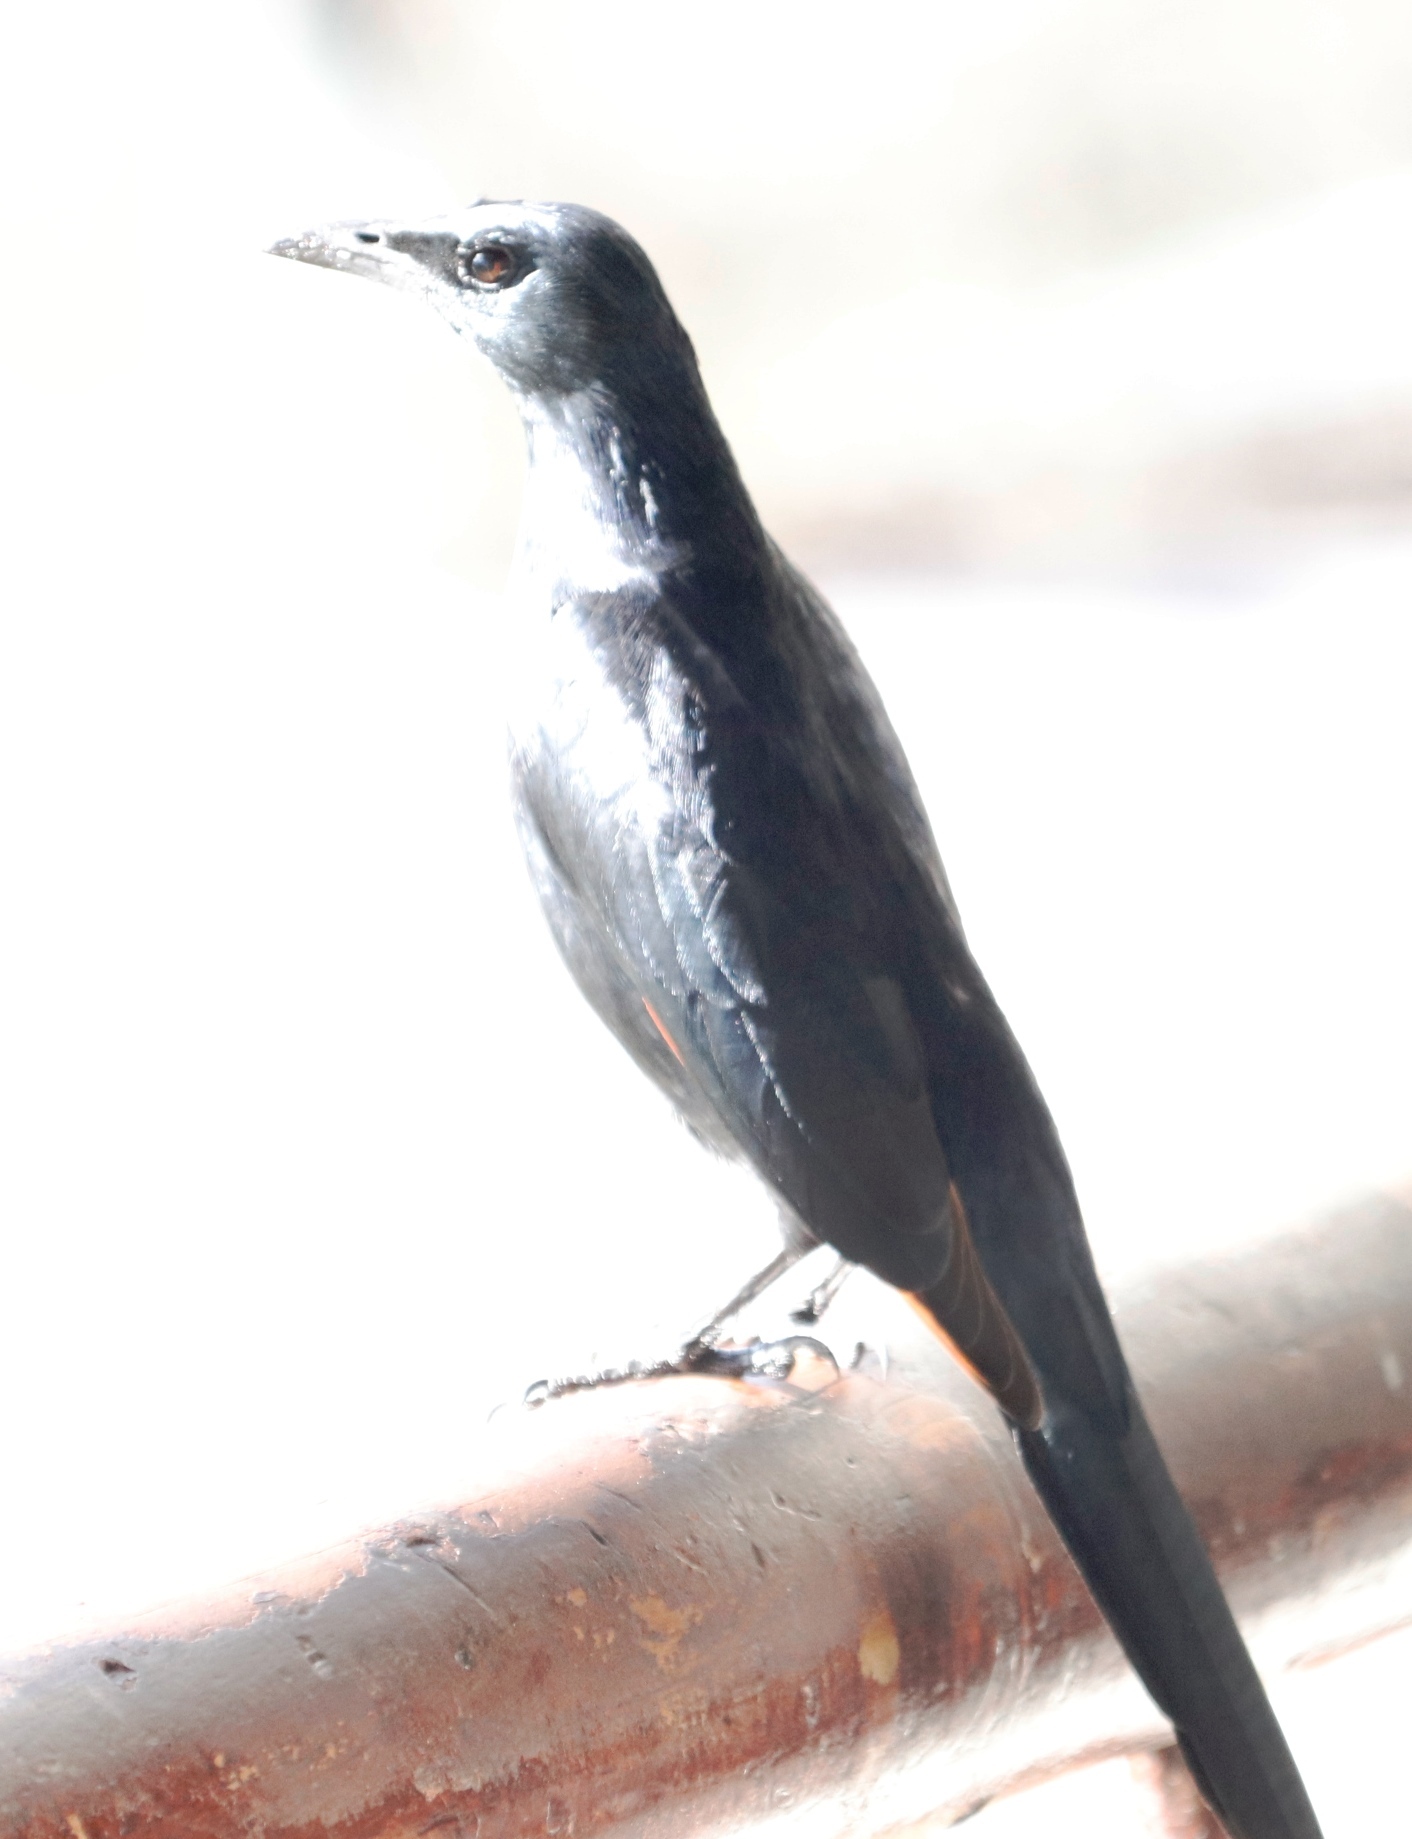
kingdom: Animalia
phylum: Chordata
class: Aves
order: Passeriformes
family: Sturnidae
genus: Onychognathus
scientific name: Onychognathus morio
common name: Red-winged starling
